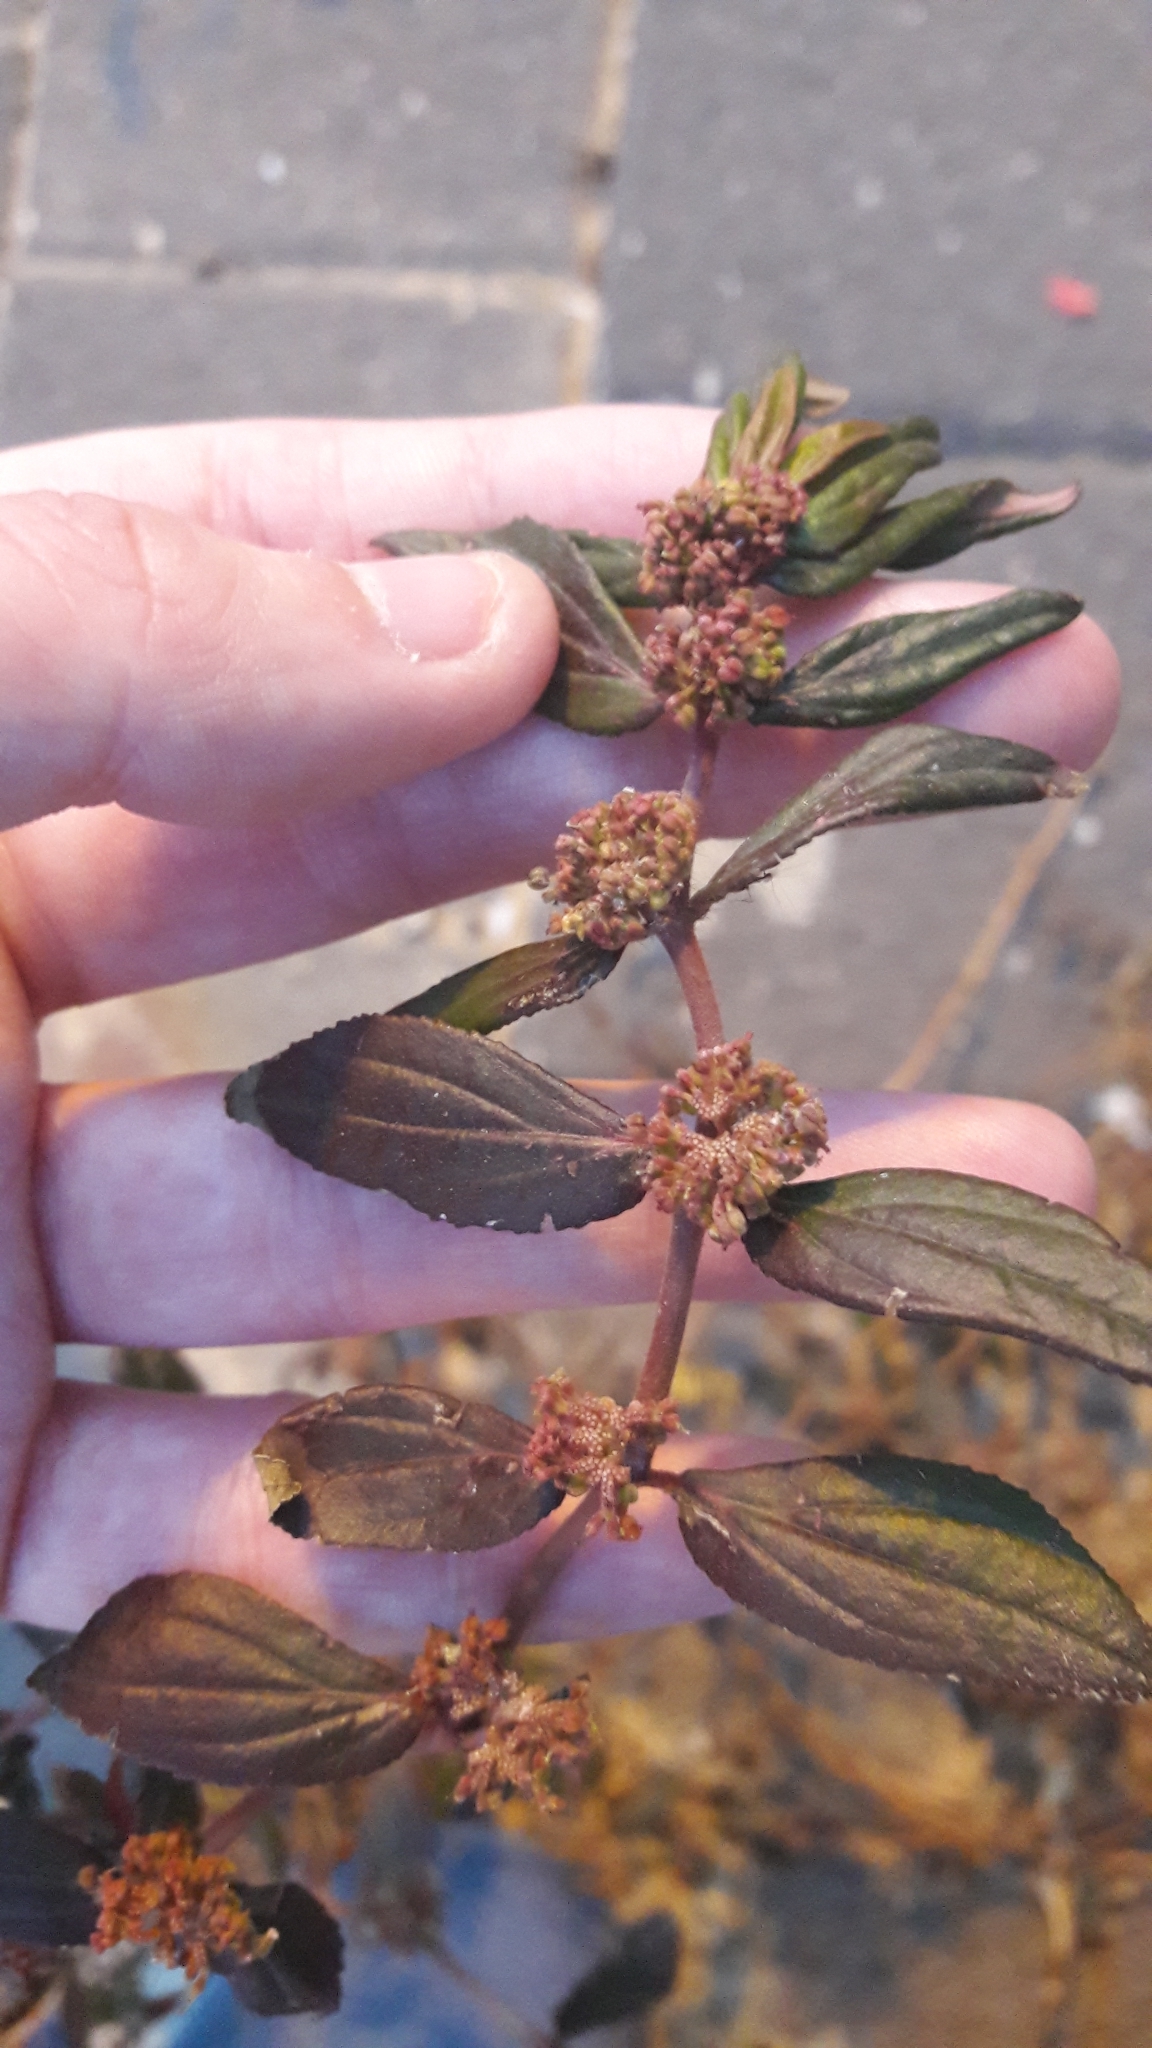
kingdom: Plantae
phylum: Tracheophyta
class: Magnoliopsida
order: Malpighiales
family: Euphorbiaceae
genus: Euphorbia
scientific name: Euphorbia hirta
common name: Pillpod sandmat
